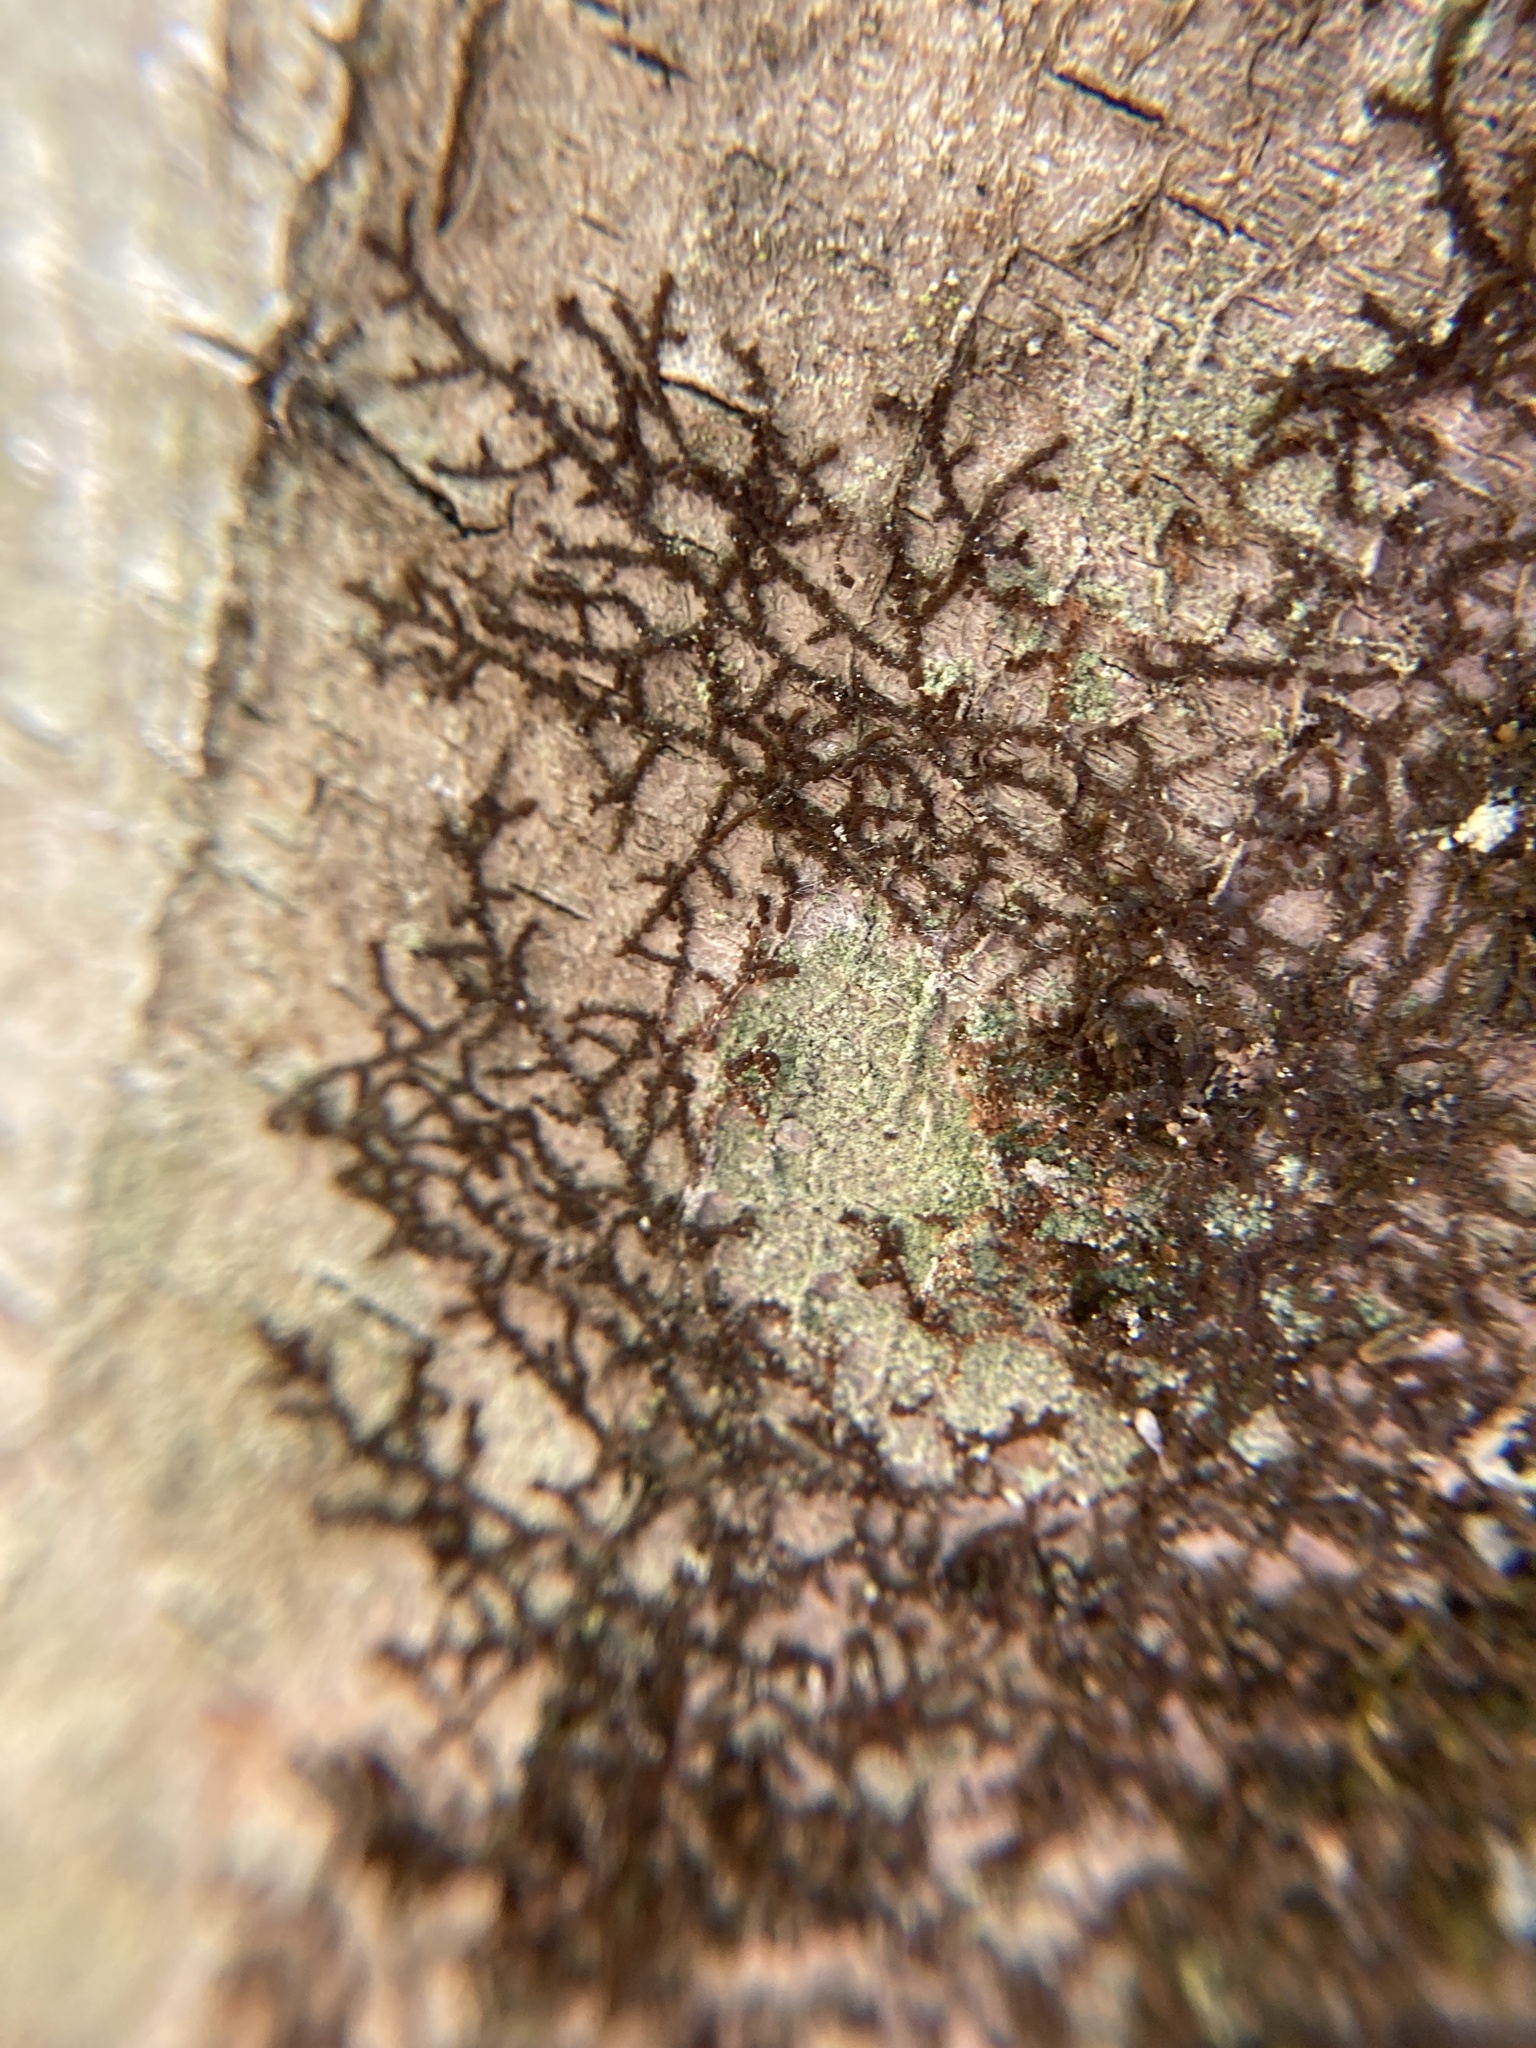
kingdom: Plantae
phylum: Marchantiophyta
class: Jungermanniopsida
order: Porellales
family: Frullaniaceae
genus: Frullania
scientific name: Frullania eboracensis
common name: New york scalewort
